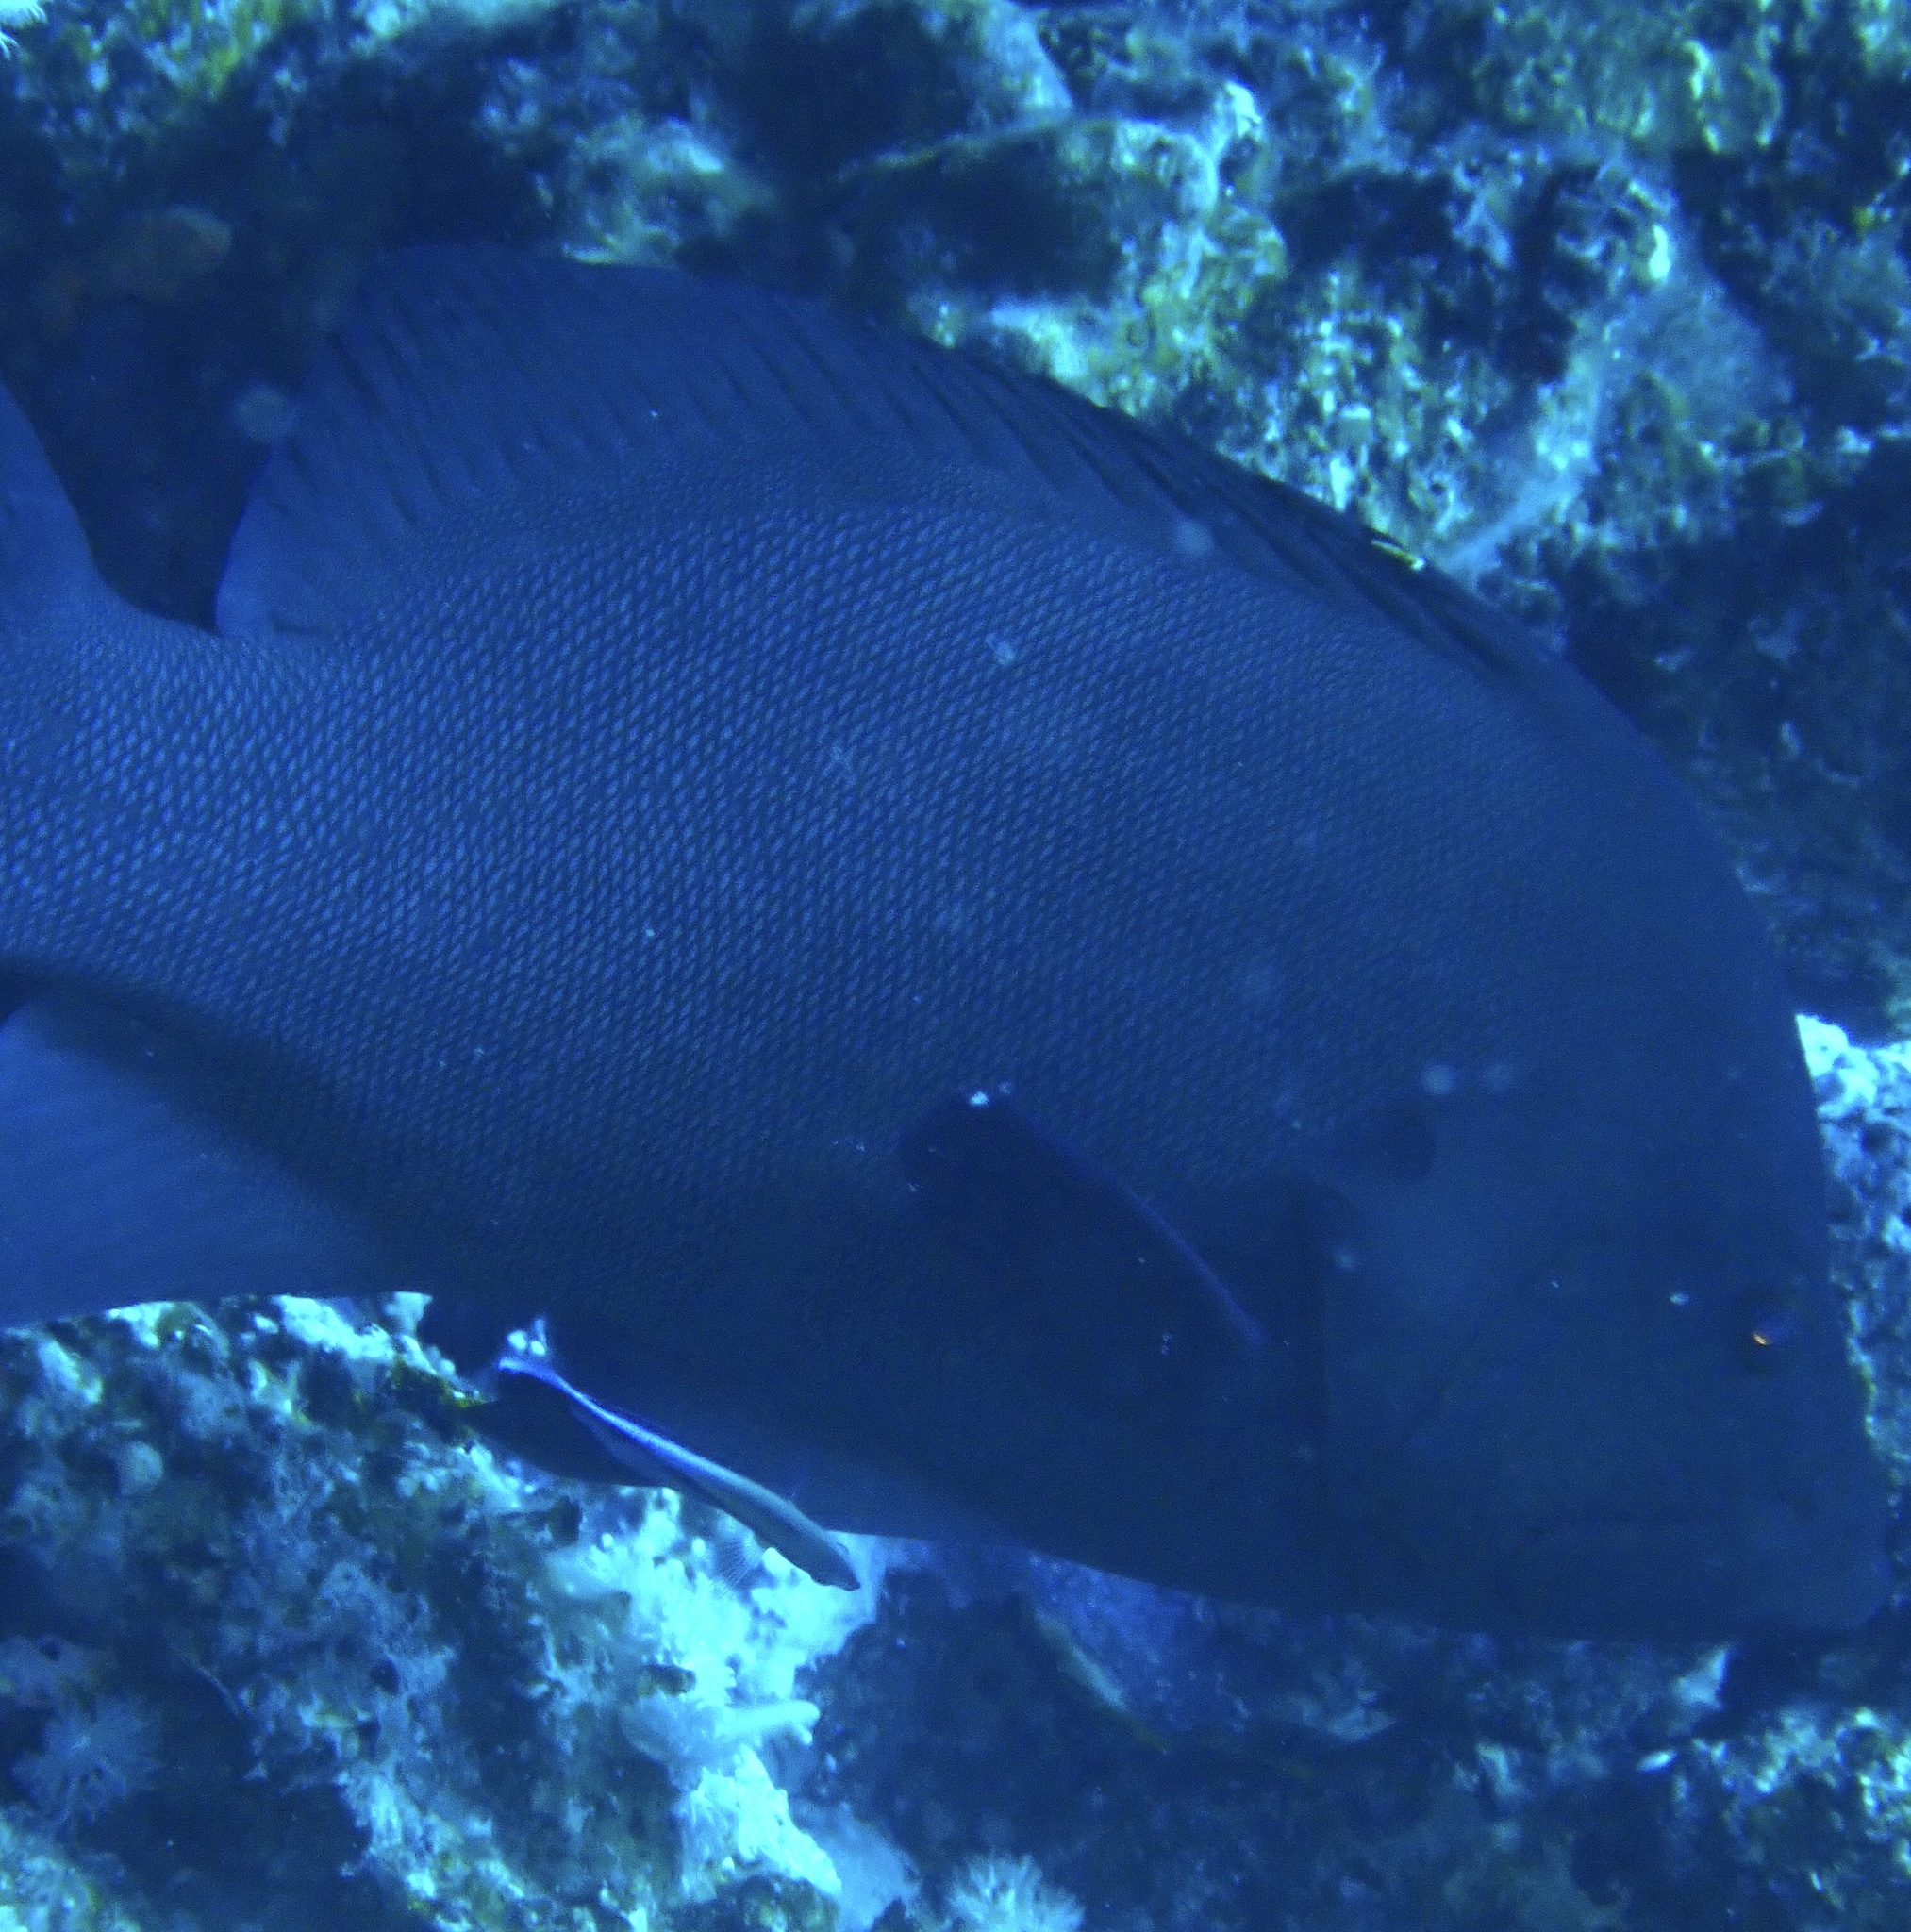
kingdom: Animalia
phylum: Chordata
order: Perciformes
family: Serranidae
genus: Aethaloperca
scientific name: Aethaloperca rogaa
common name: Redmouth grouper
